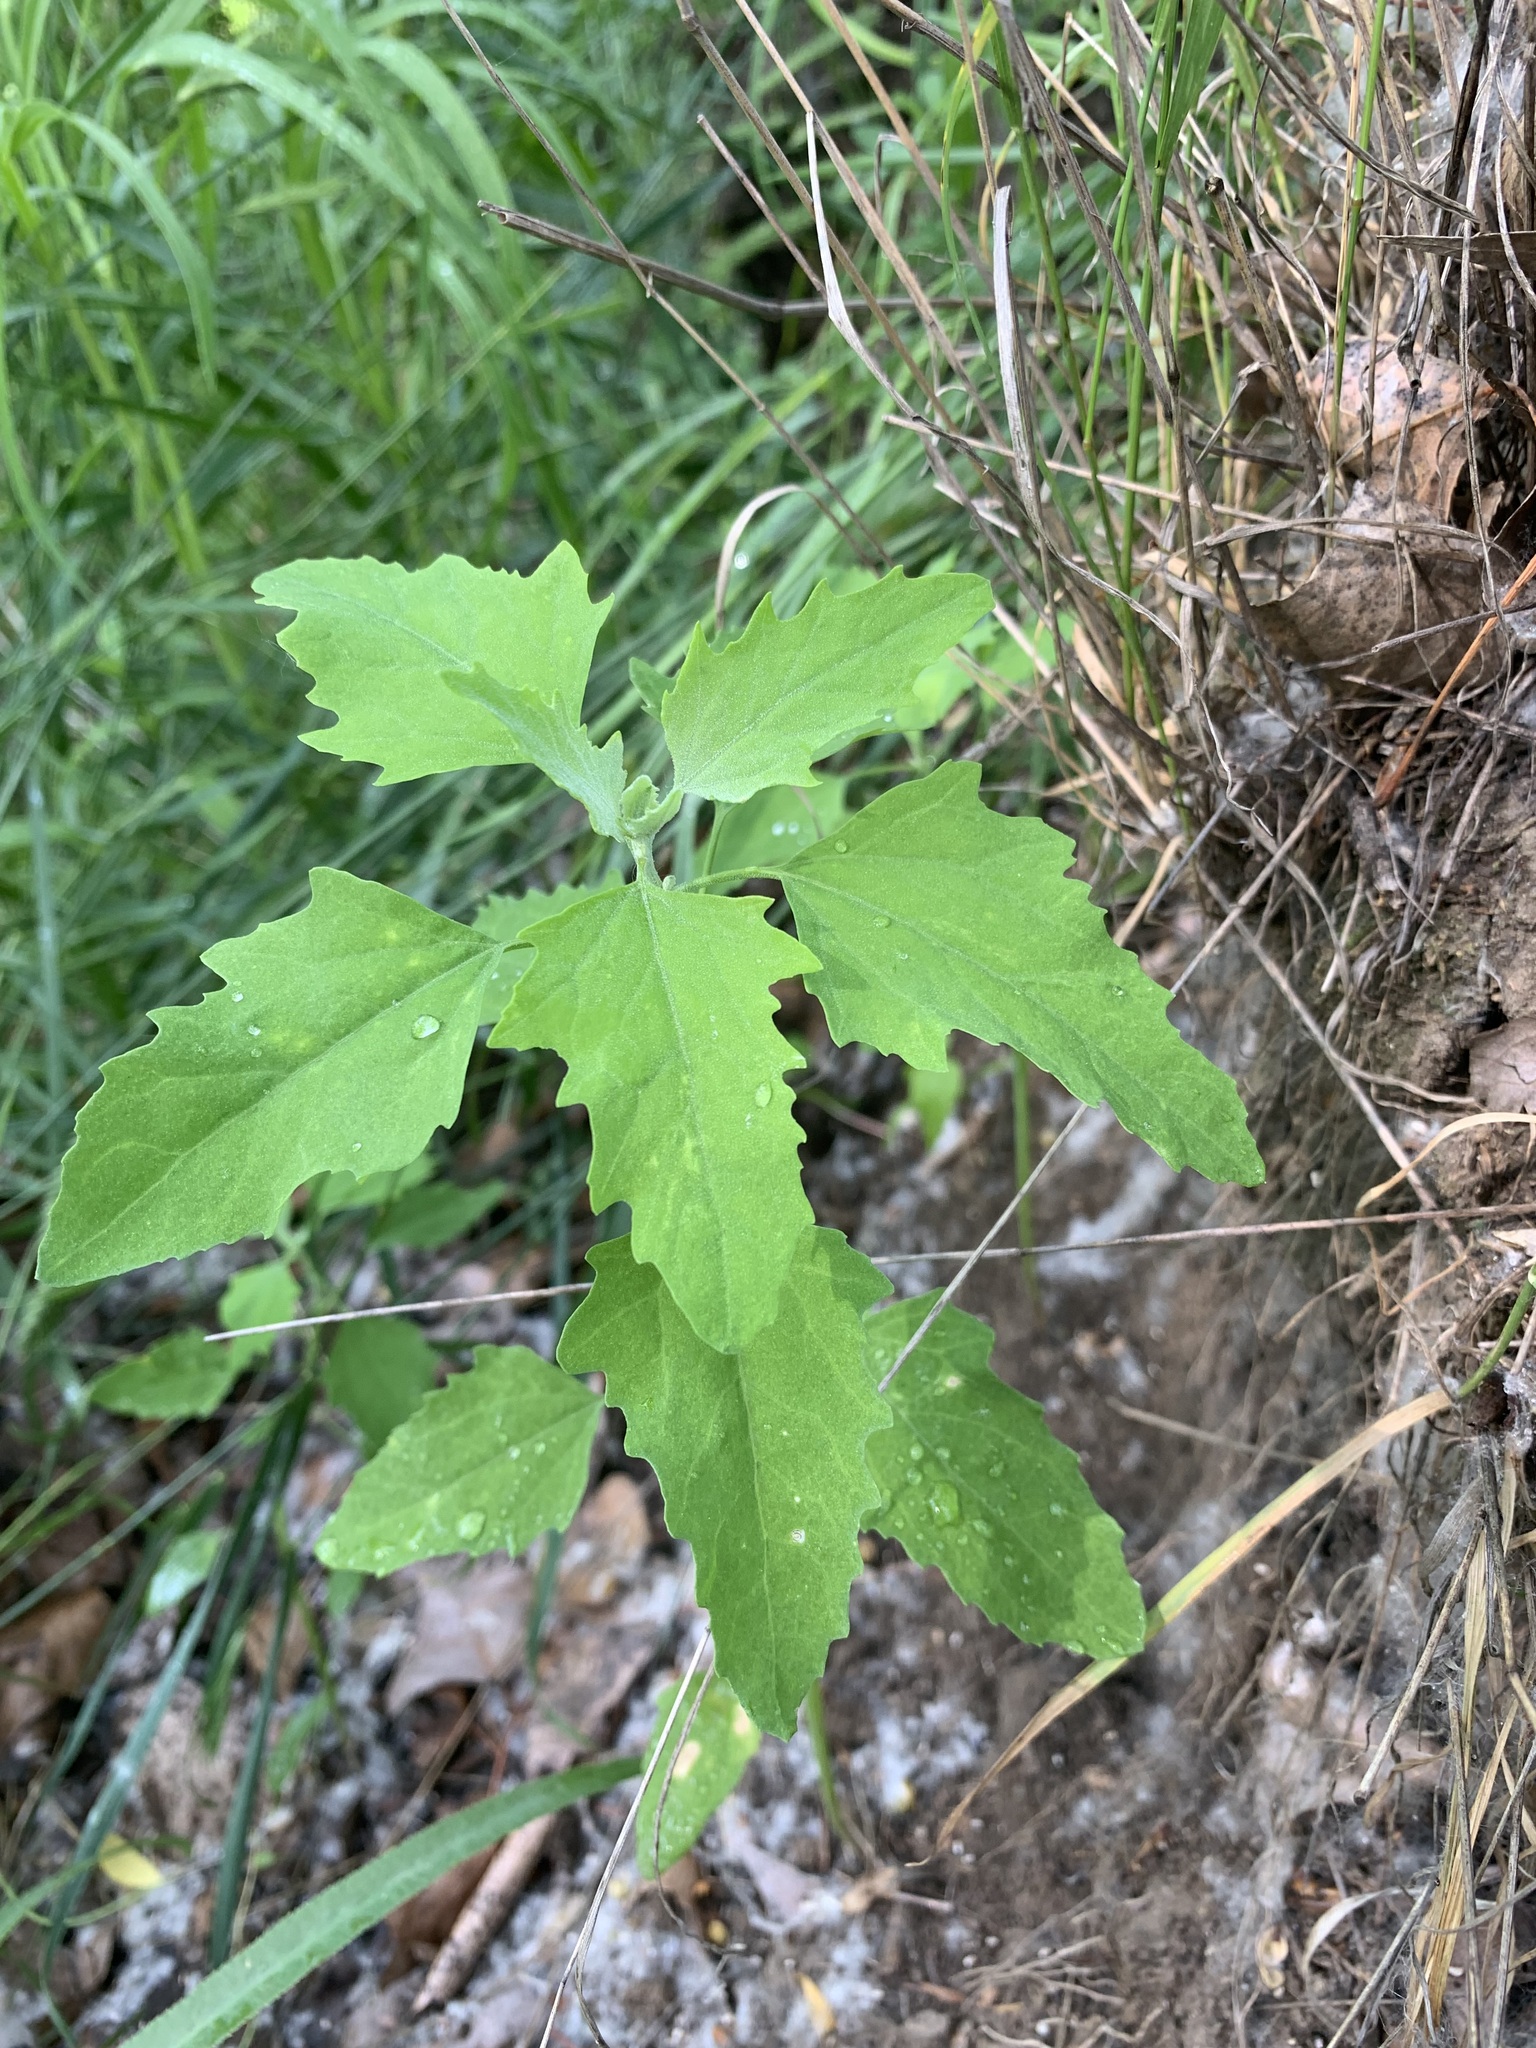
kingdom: Plantae
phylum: Tracheophyta
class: Magnoliopsida
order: Caryophyllales
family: Amaranthaceae
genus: Chenopodium
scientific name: Chenopodium album
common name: Fat-hen
